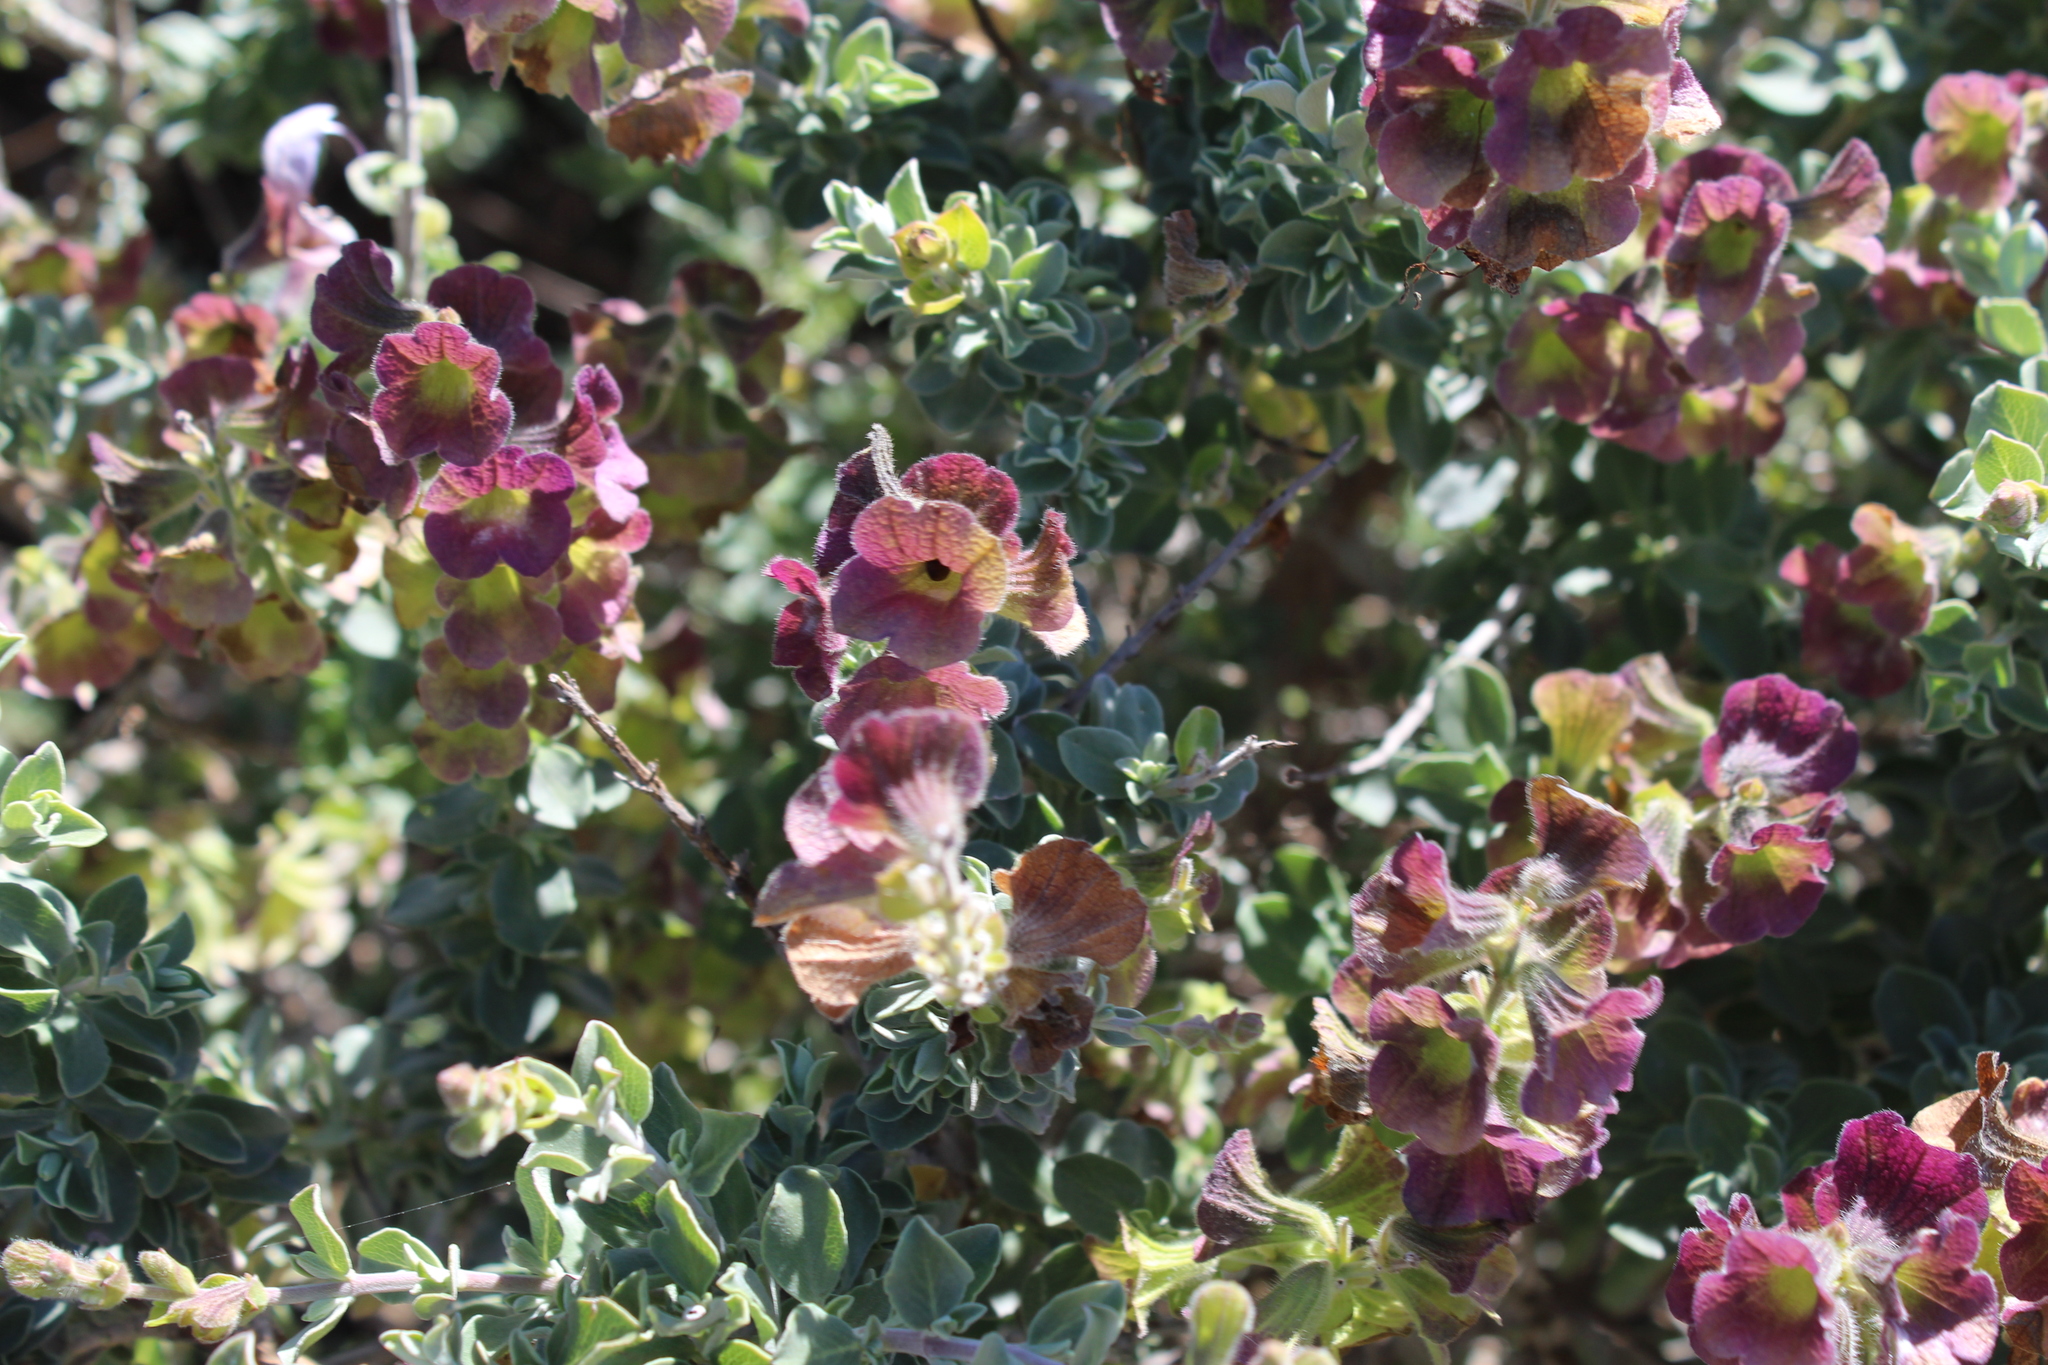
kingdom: Plantae
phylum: Tracheophyta
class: Magnoliopsida
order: Lamiales
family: Lamiaceae
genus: Salvia
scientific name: Salvia aurea
